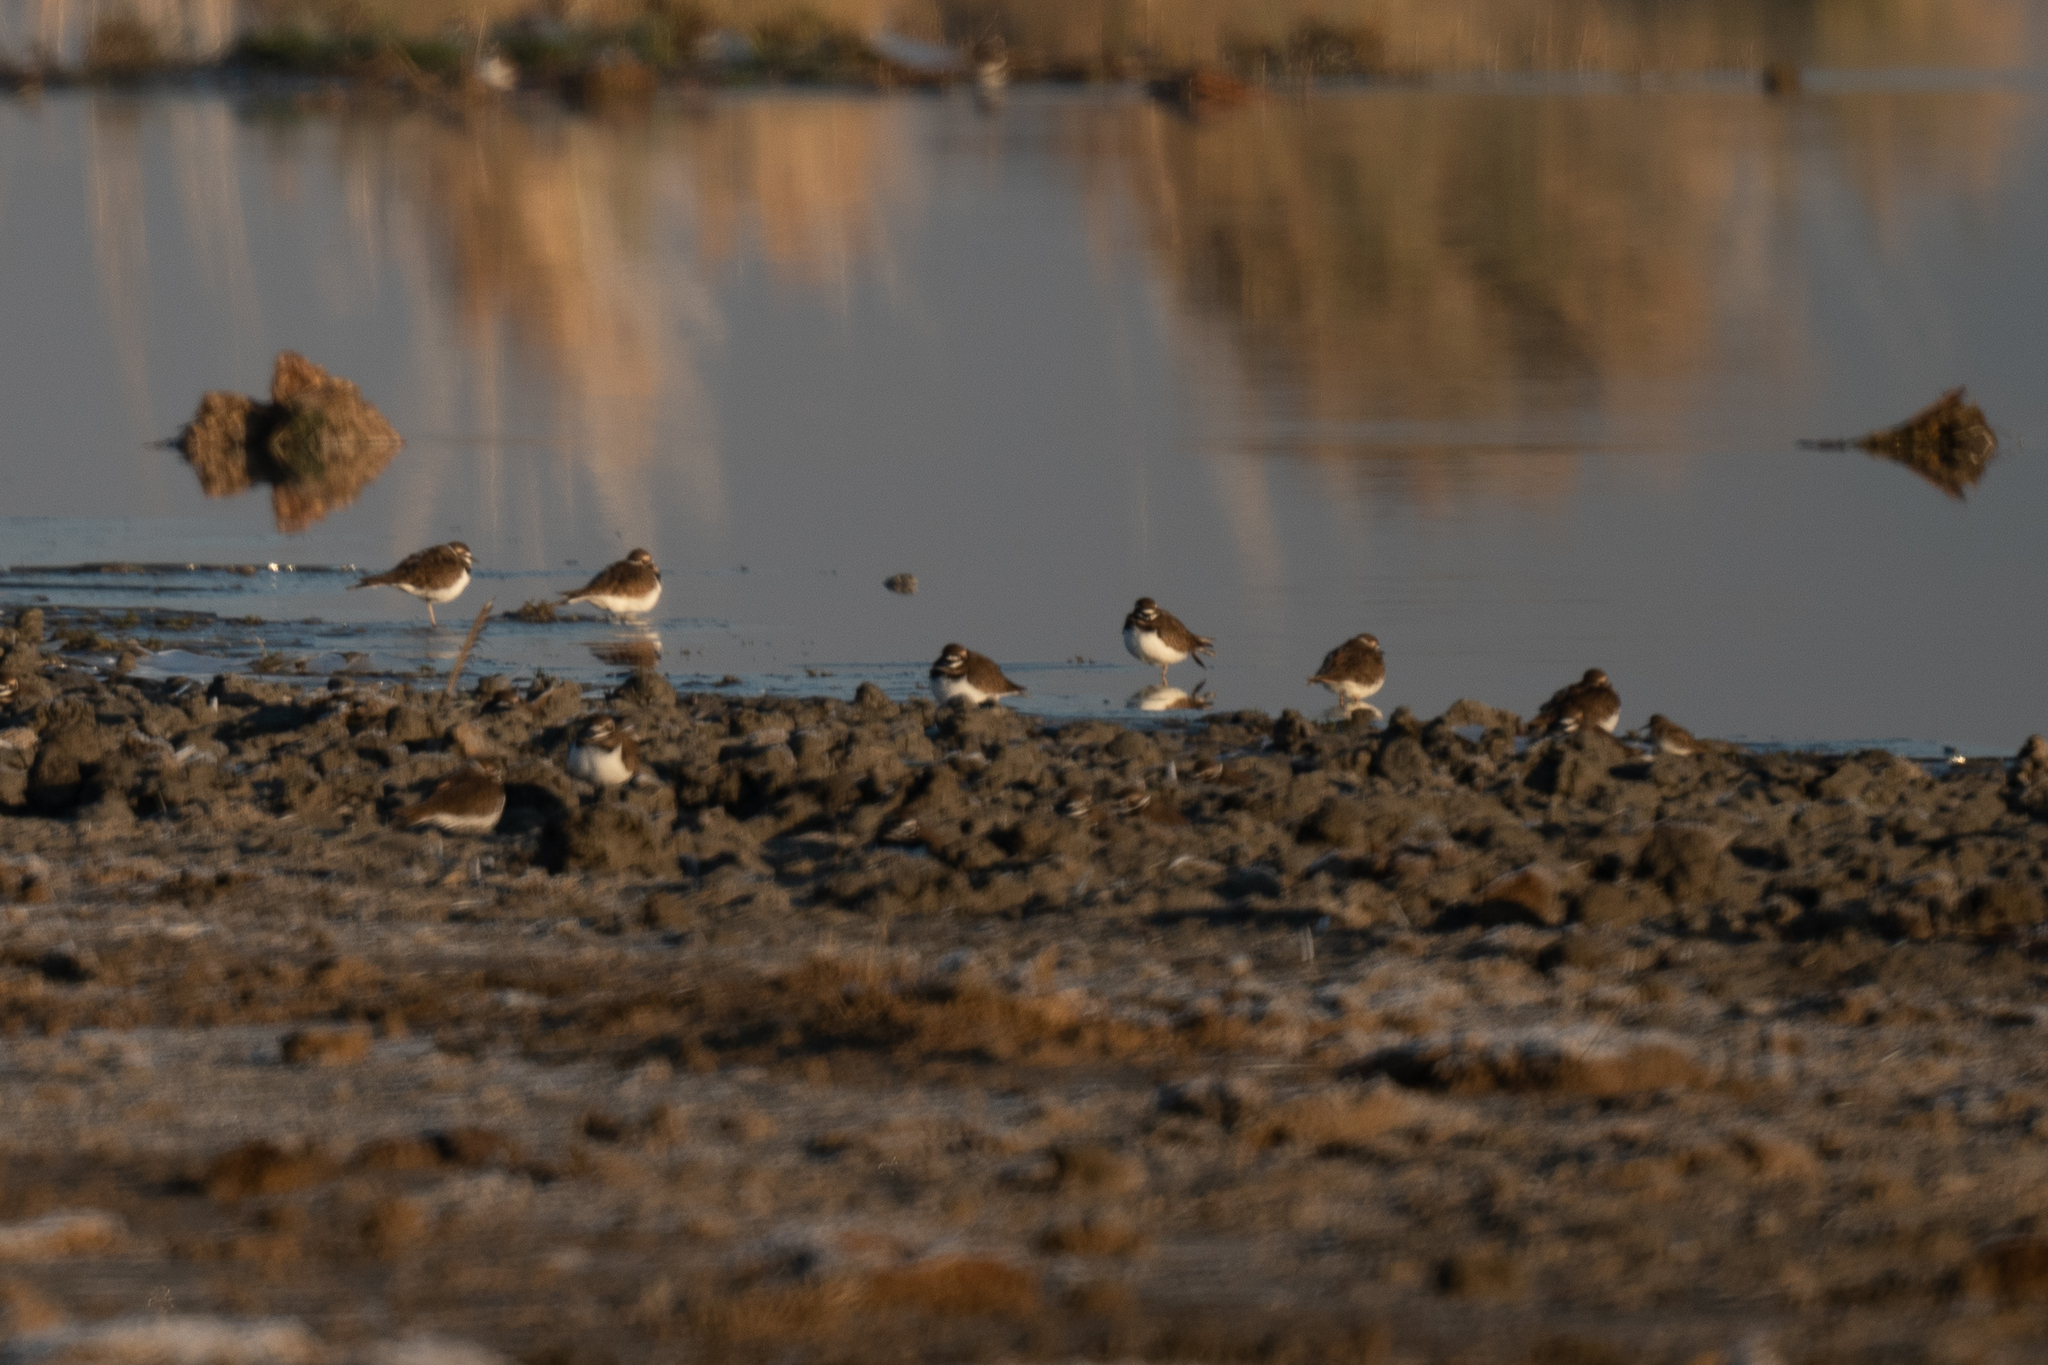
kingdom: Animalia
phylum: Chordata
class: Aves
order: Charadriiformes
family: Charadriidae
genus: Charadrius
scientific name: Charadrius vociferus
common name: Killdeer
